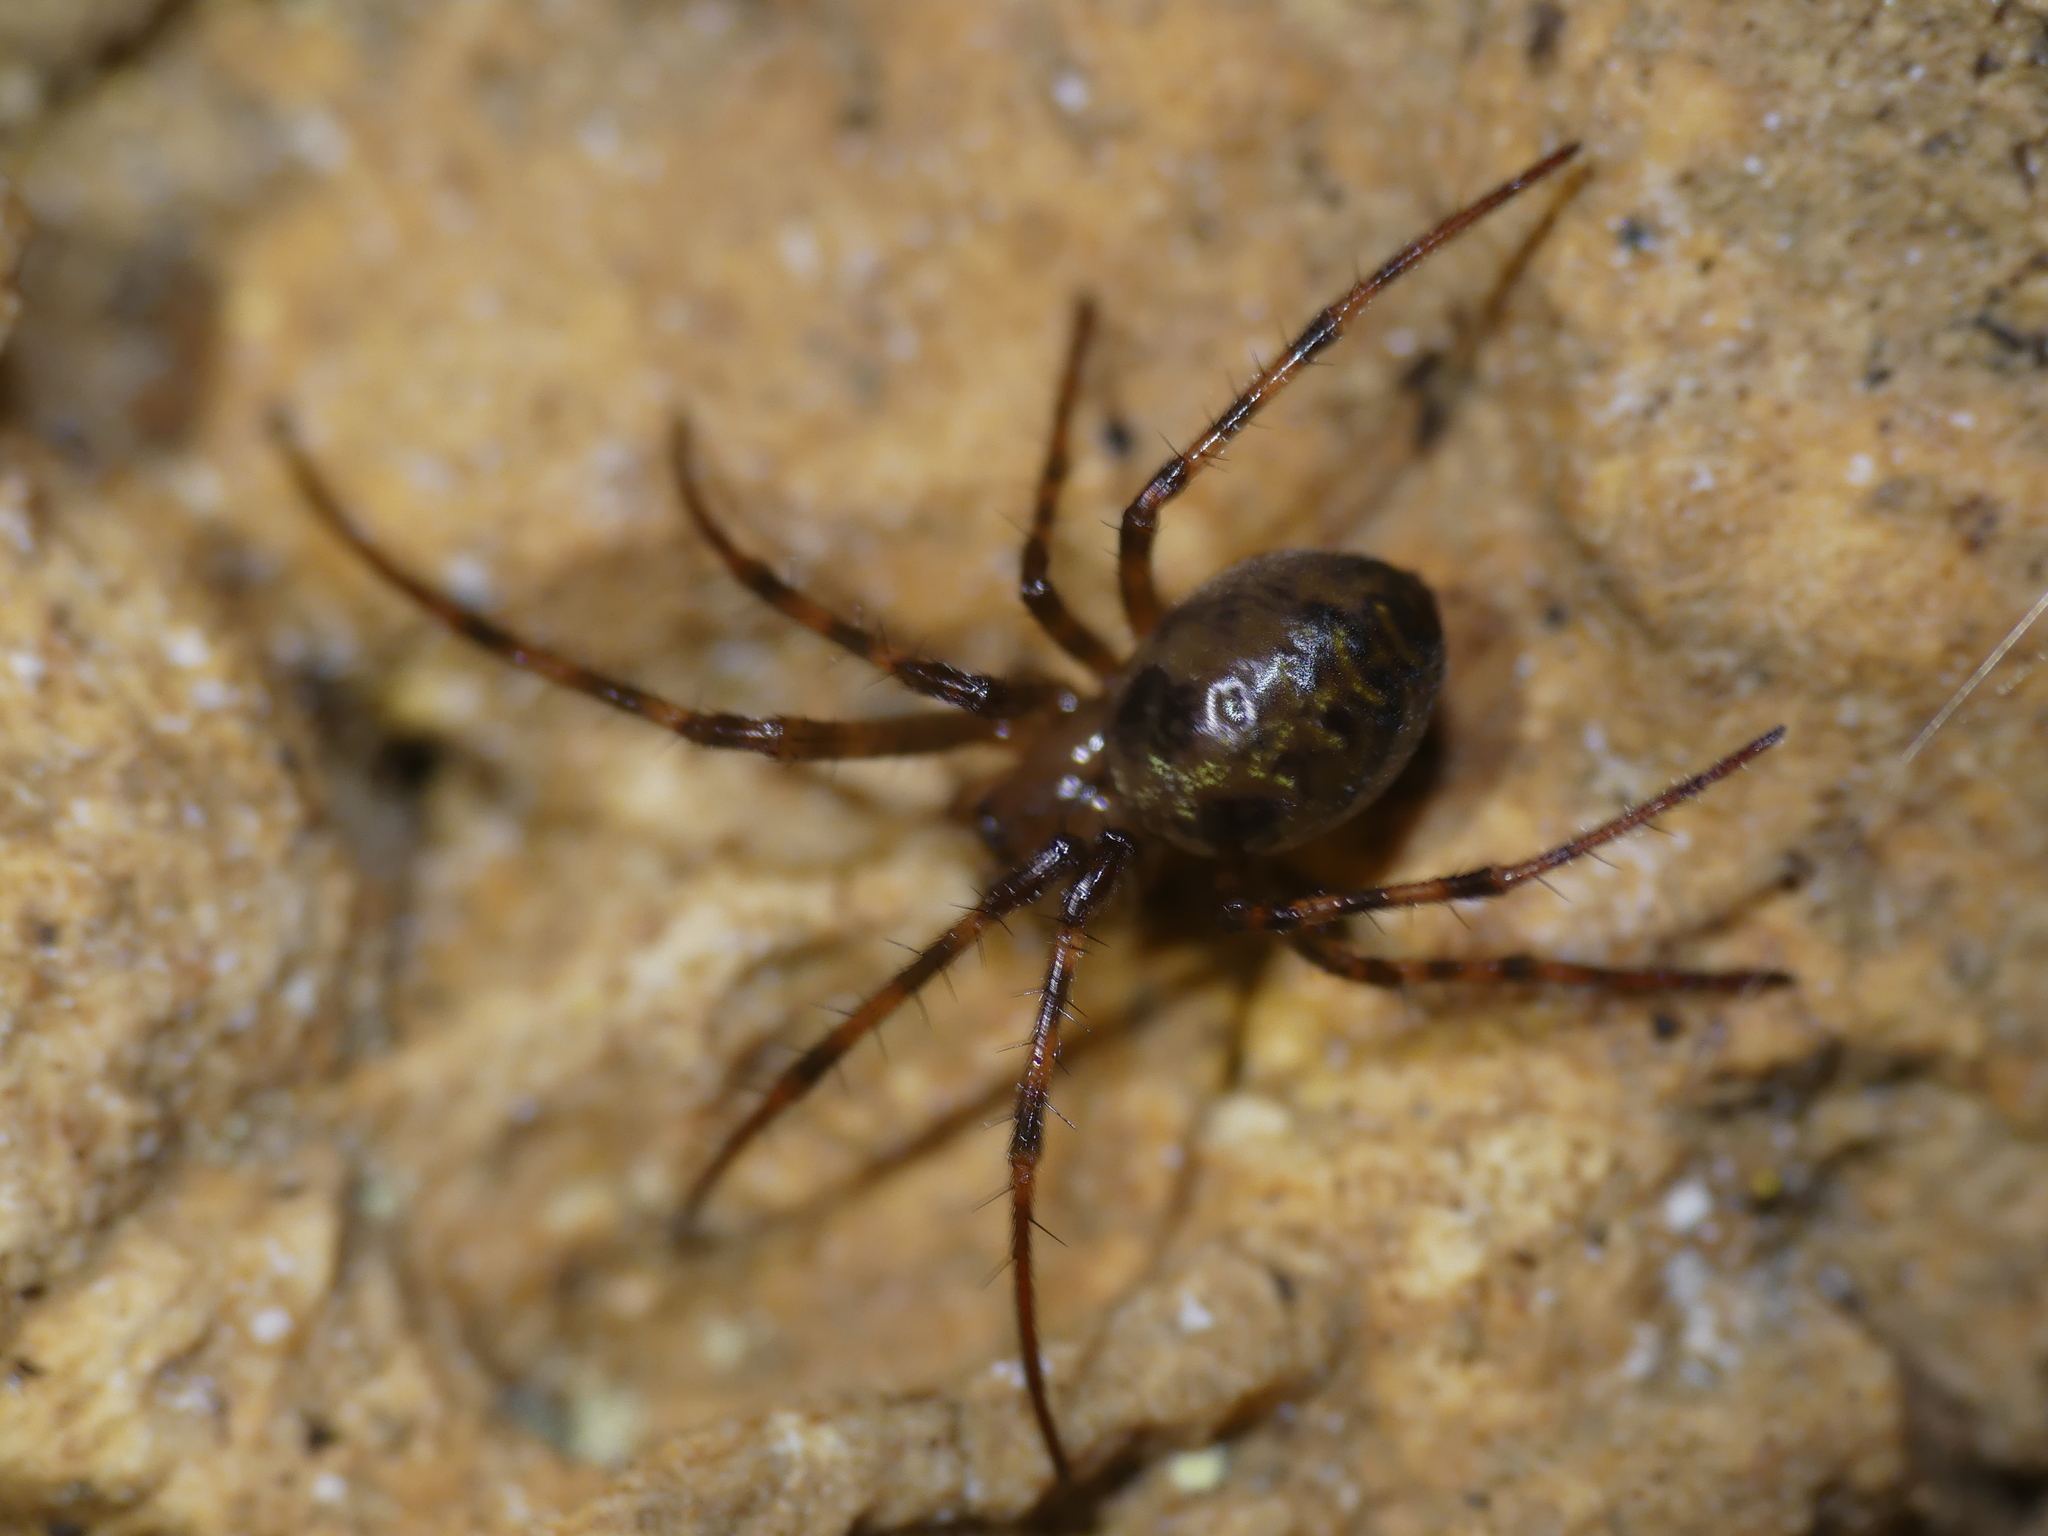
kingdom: Animalia
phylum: Arthropoda
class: Arachnida
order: Araneae
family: Tetragnathidae
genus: Meta
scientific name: Meta menardi
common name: Cave spider
